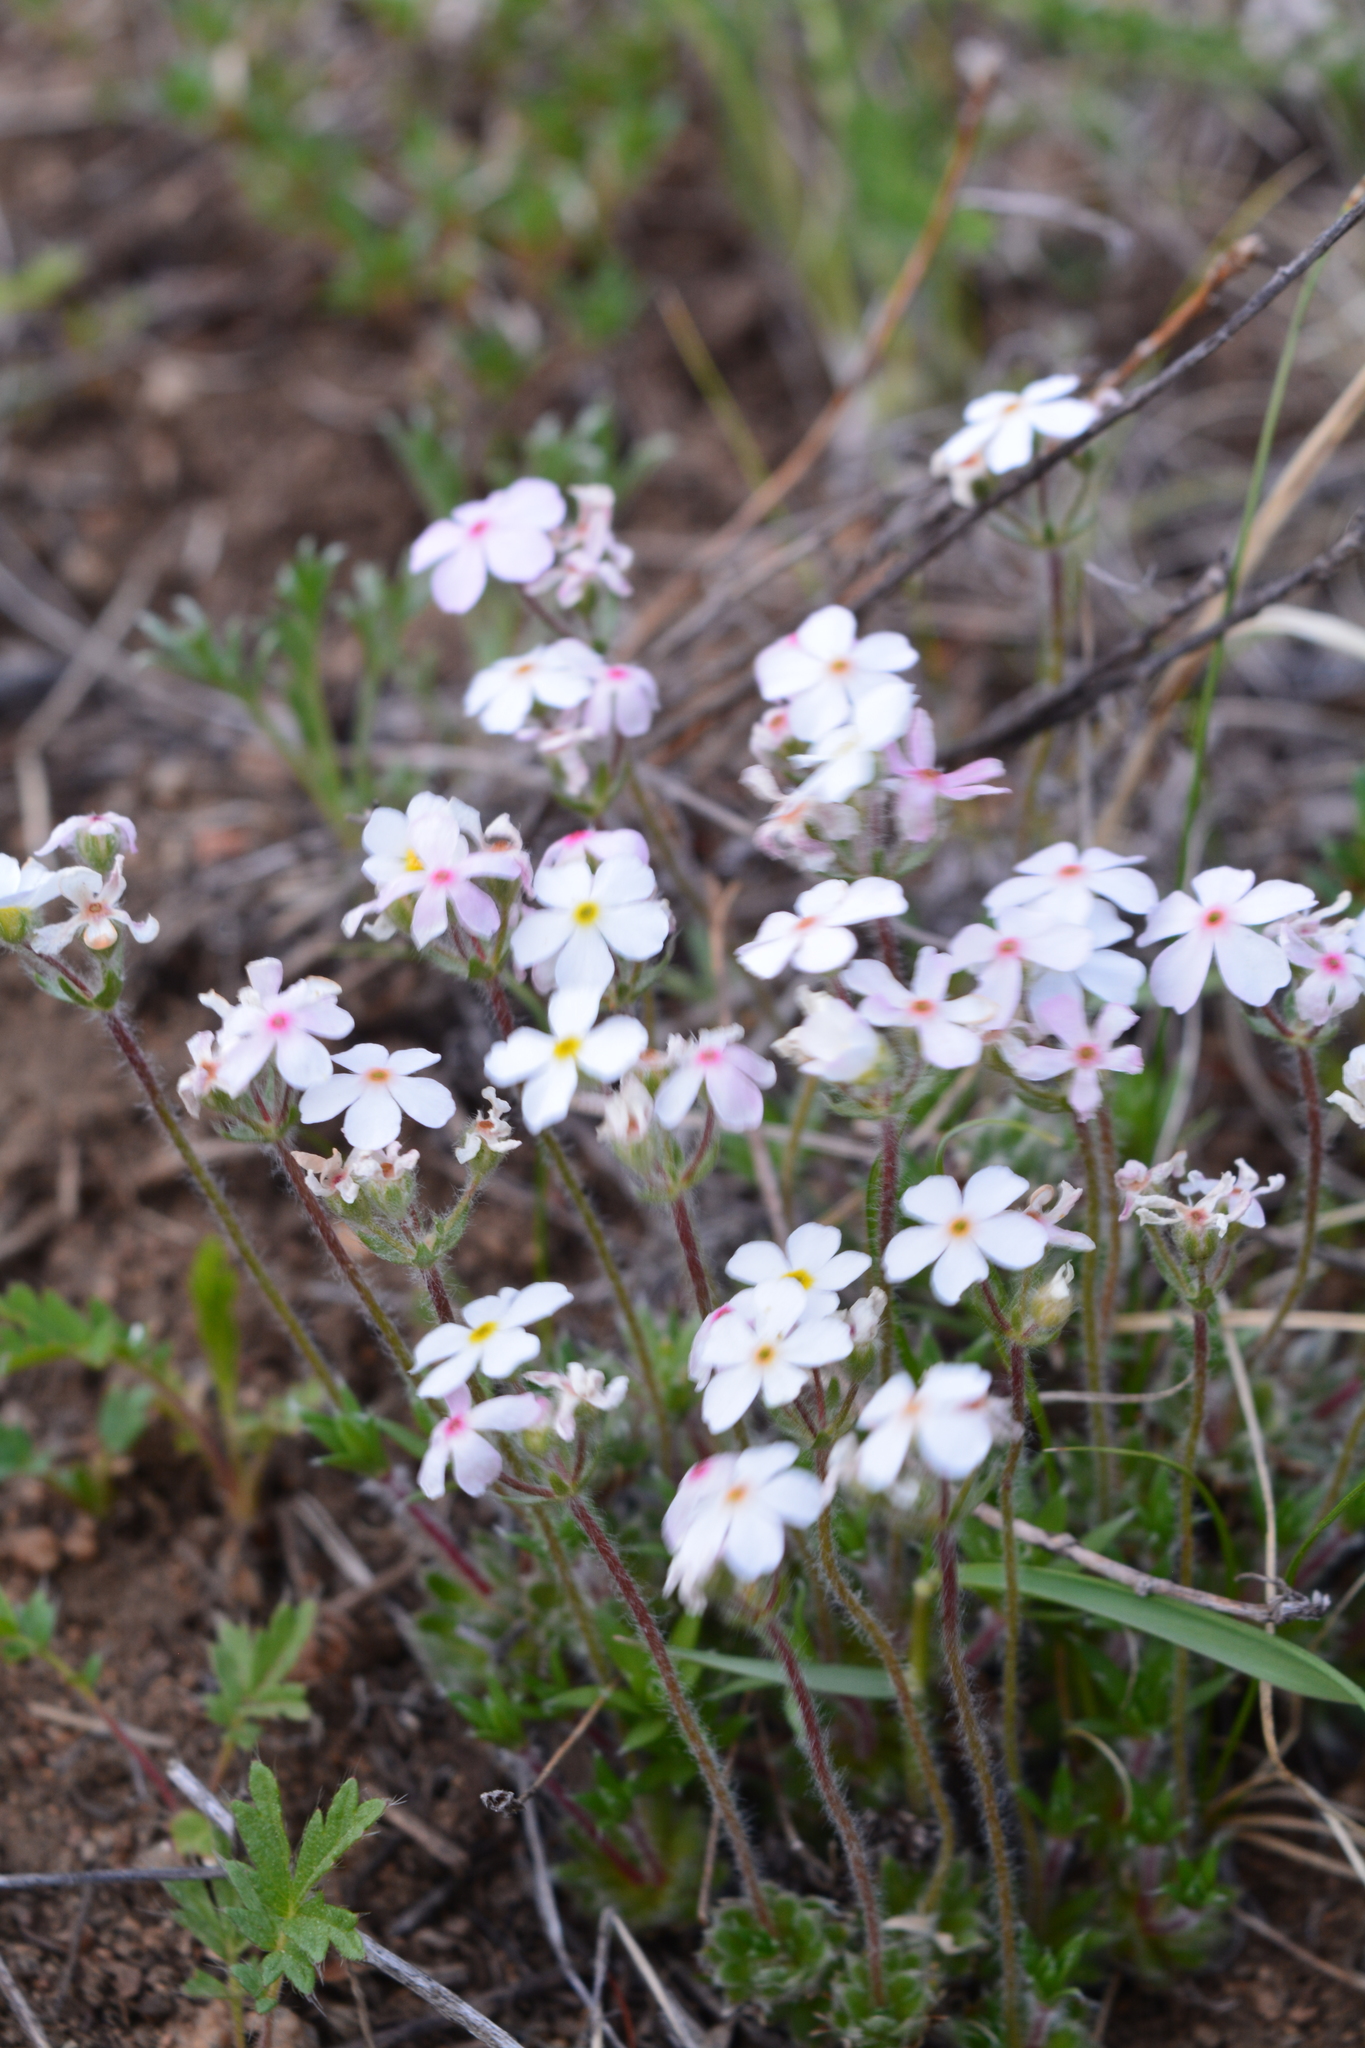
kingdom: Plantae
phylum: Tracheophyta
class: Magnoliopsida
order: Ericales
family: Primulaceae
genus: Androsace
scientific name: Androsace incana
